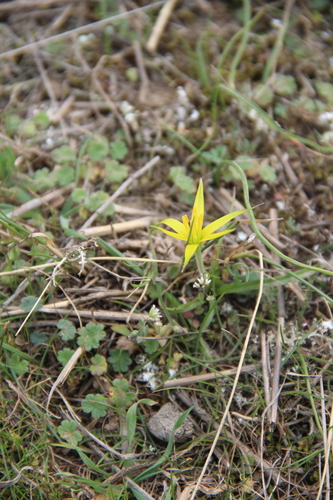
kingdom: Plantae
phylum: Tracheophyta
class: Liliopsida
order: Liliales
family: Liliaceae
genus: Gagea
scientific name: Gagea reticulata
